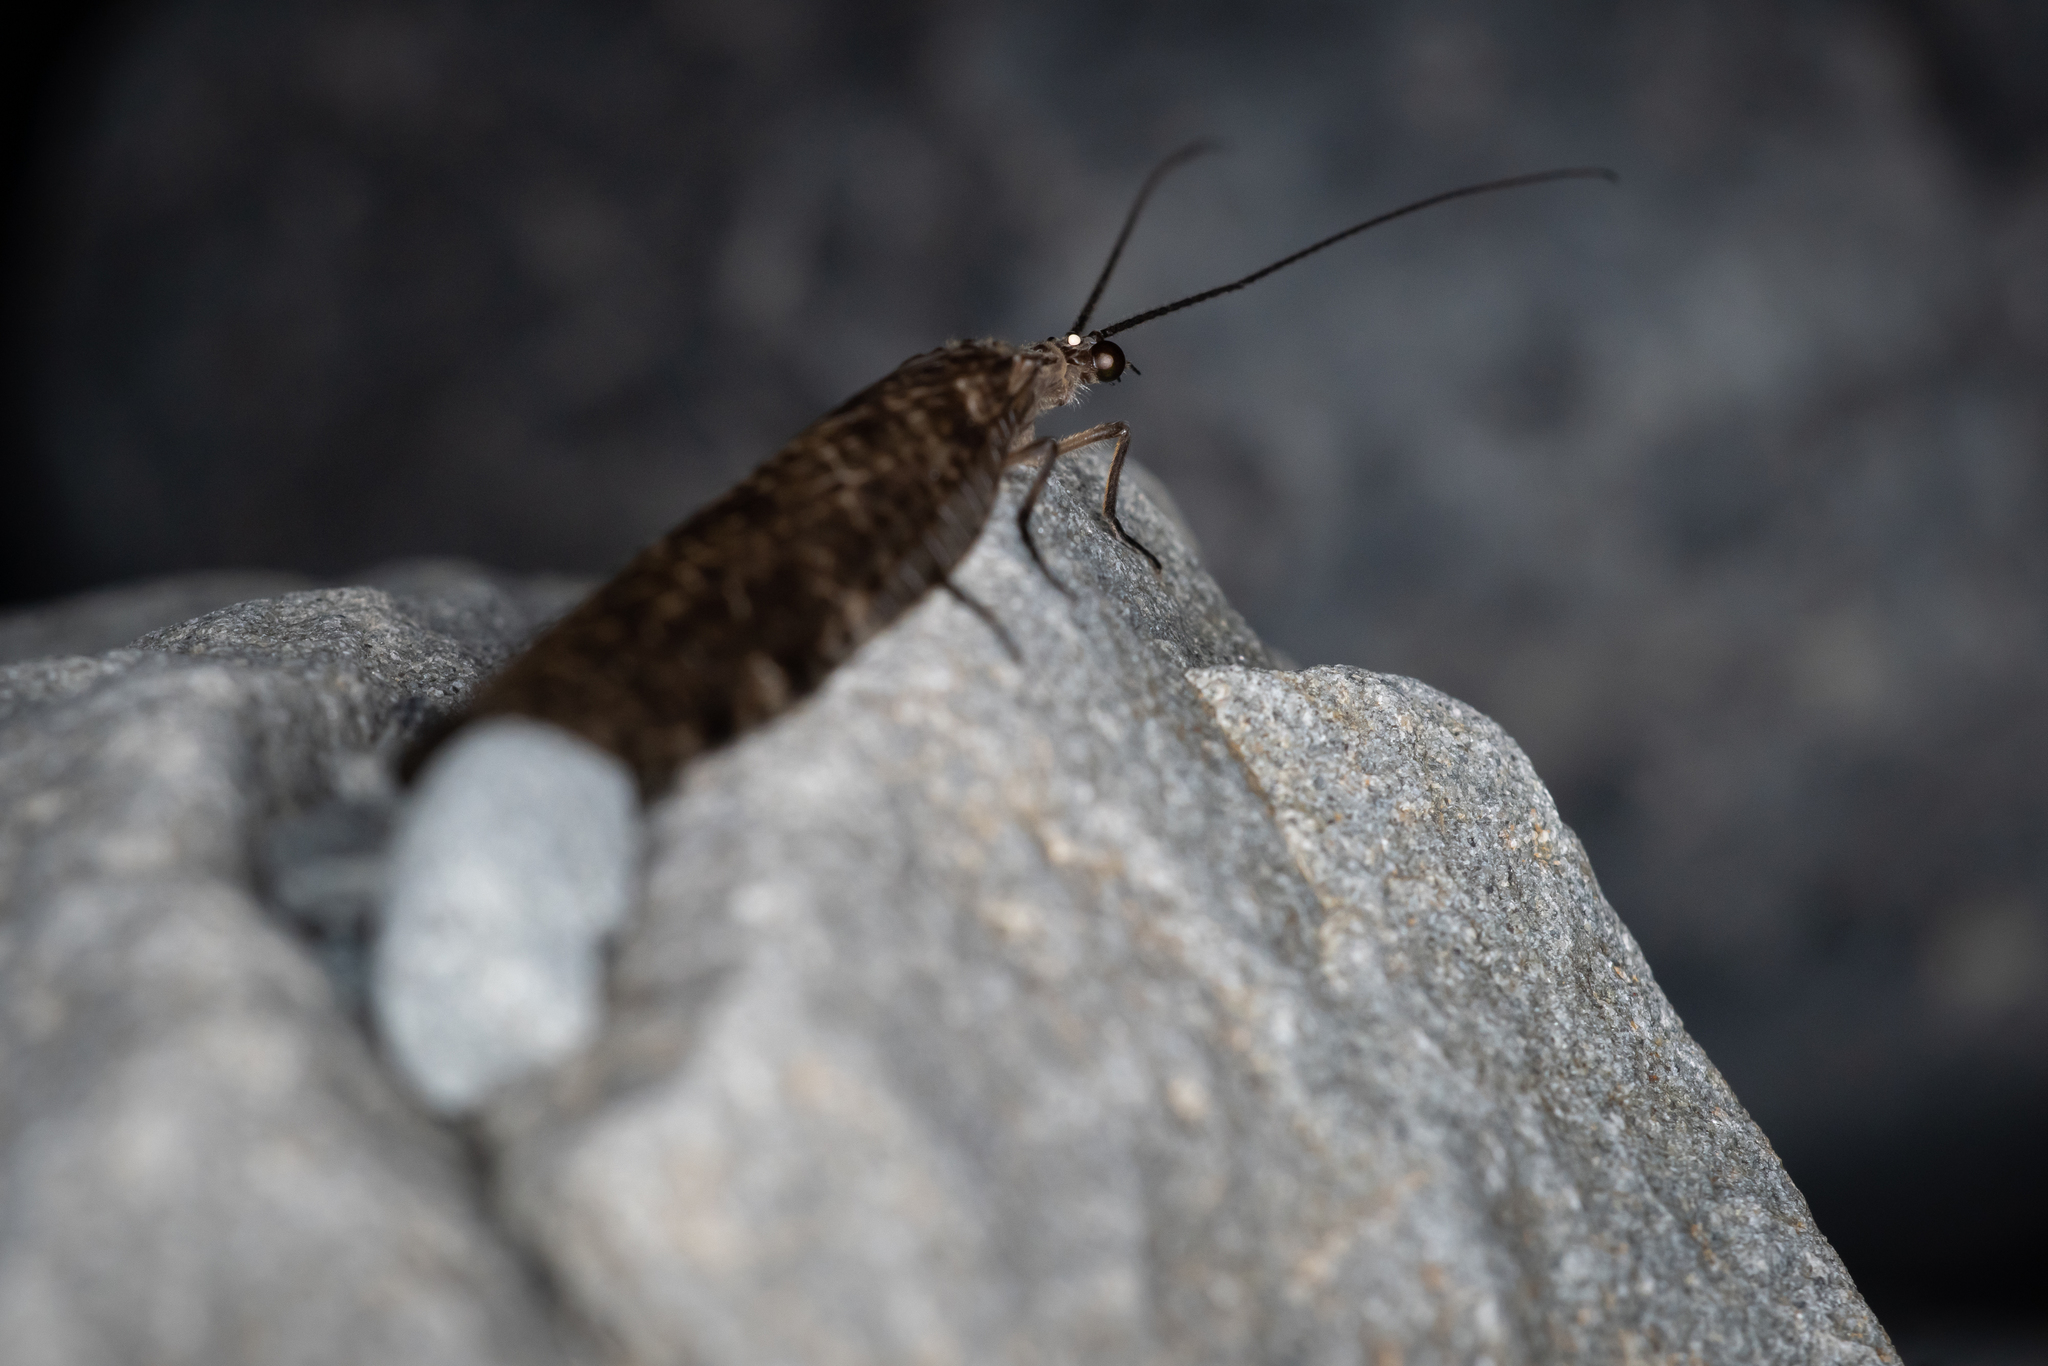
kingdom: Animalia
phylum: Arthropoda
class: Insecta
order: Megaloptera
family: Corydalidae
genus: Archichauliodes
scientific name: Archichauliodes diversus
